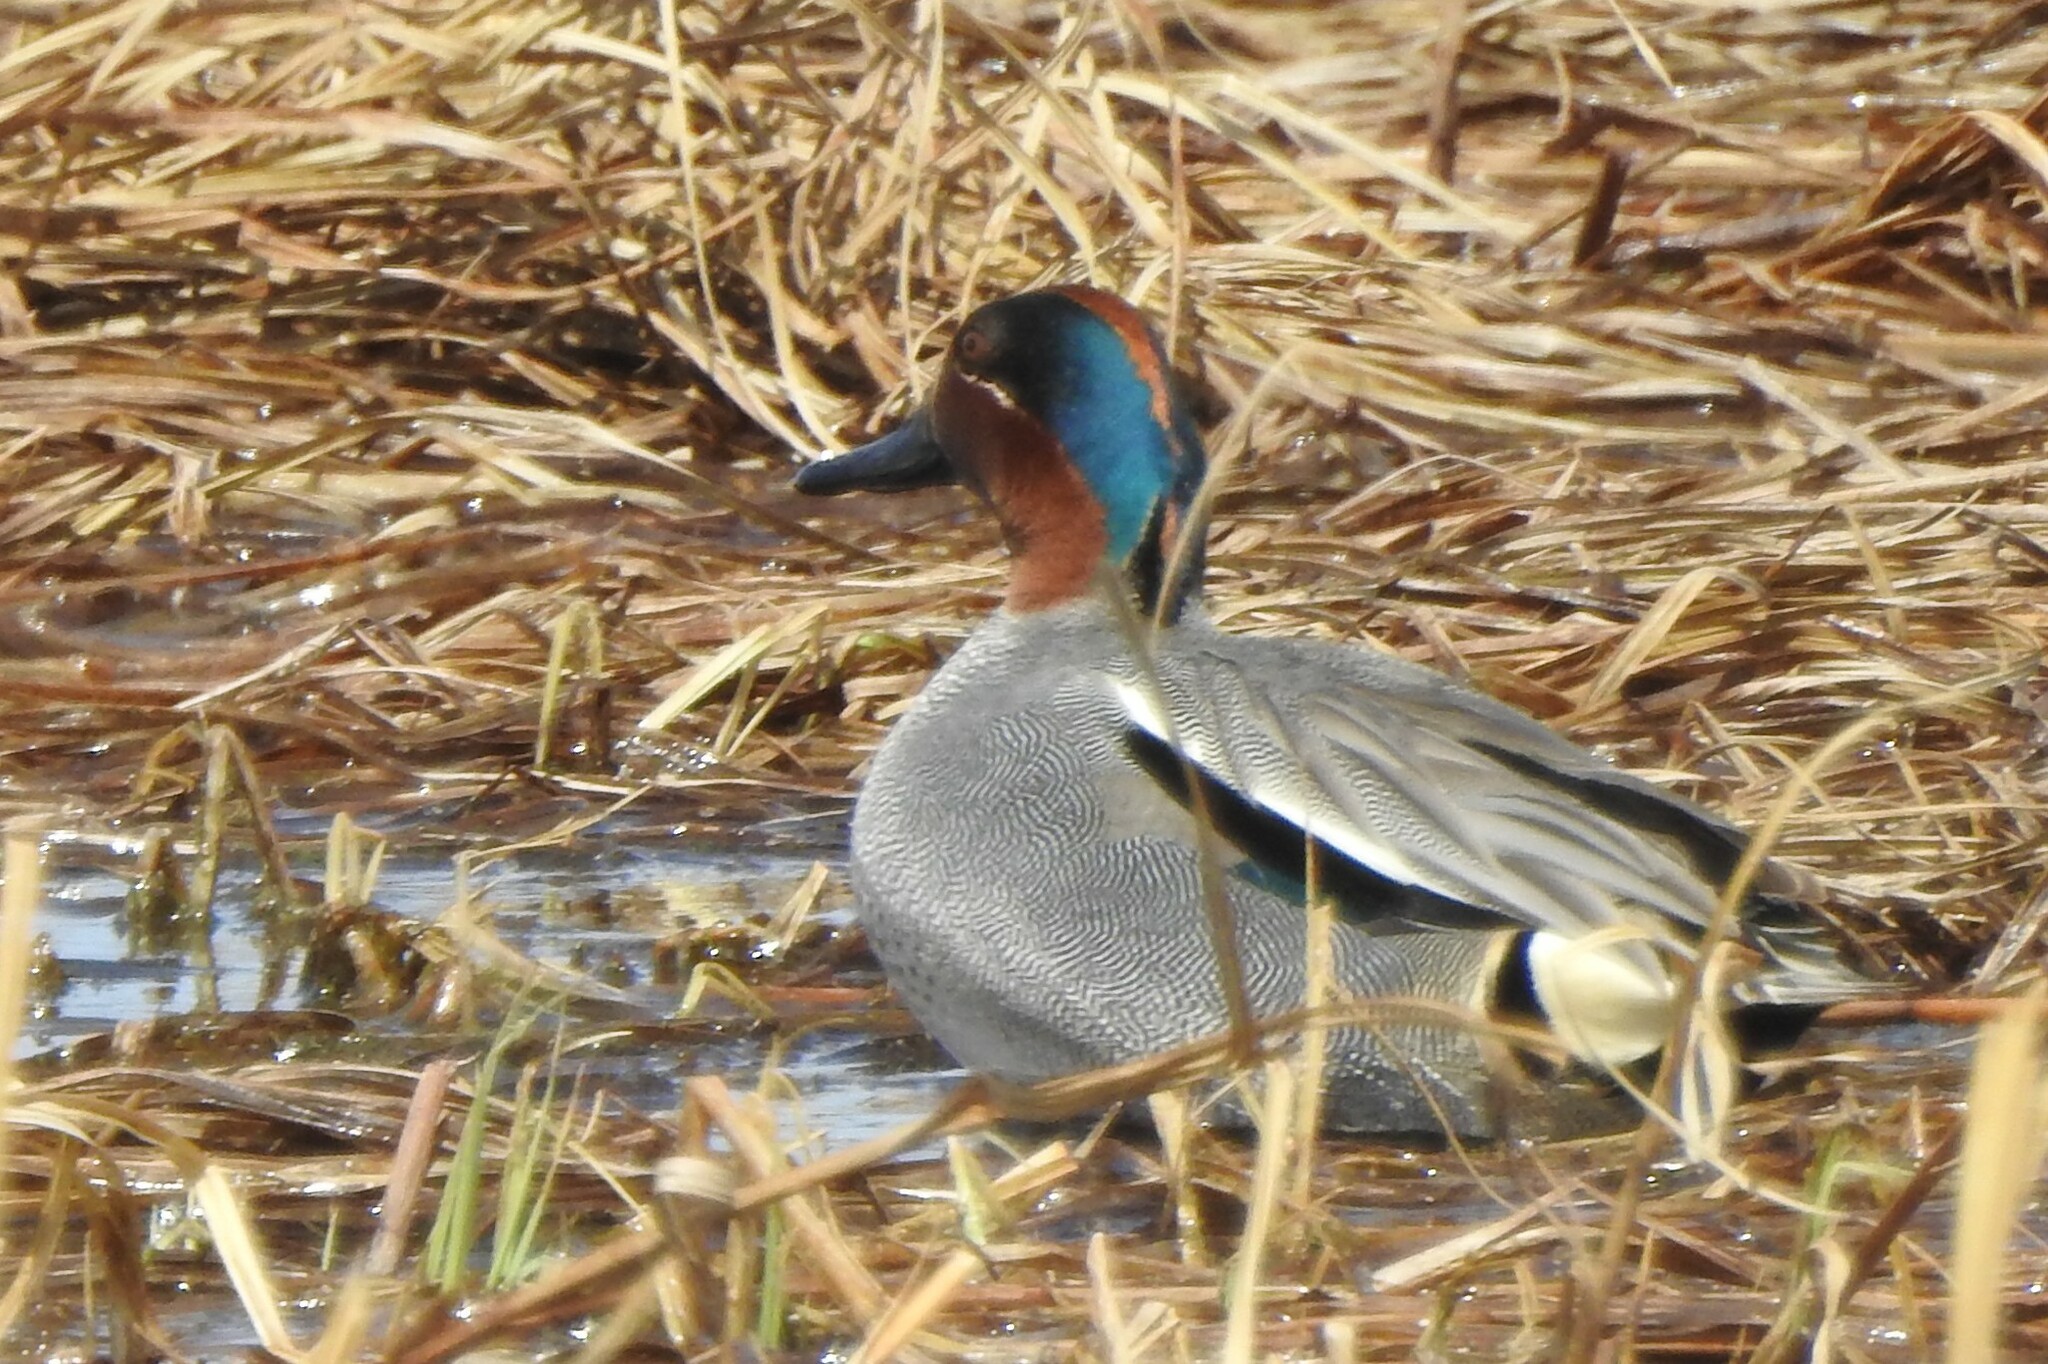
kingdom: Animalia
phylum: Chordata
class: Aves
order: Anseriformes
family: Anatidae
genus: Anas
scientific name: Anas crecca
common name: Eurasian teal
